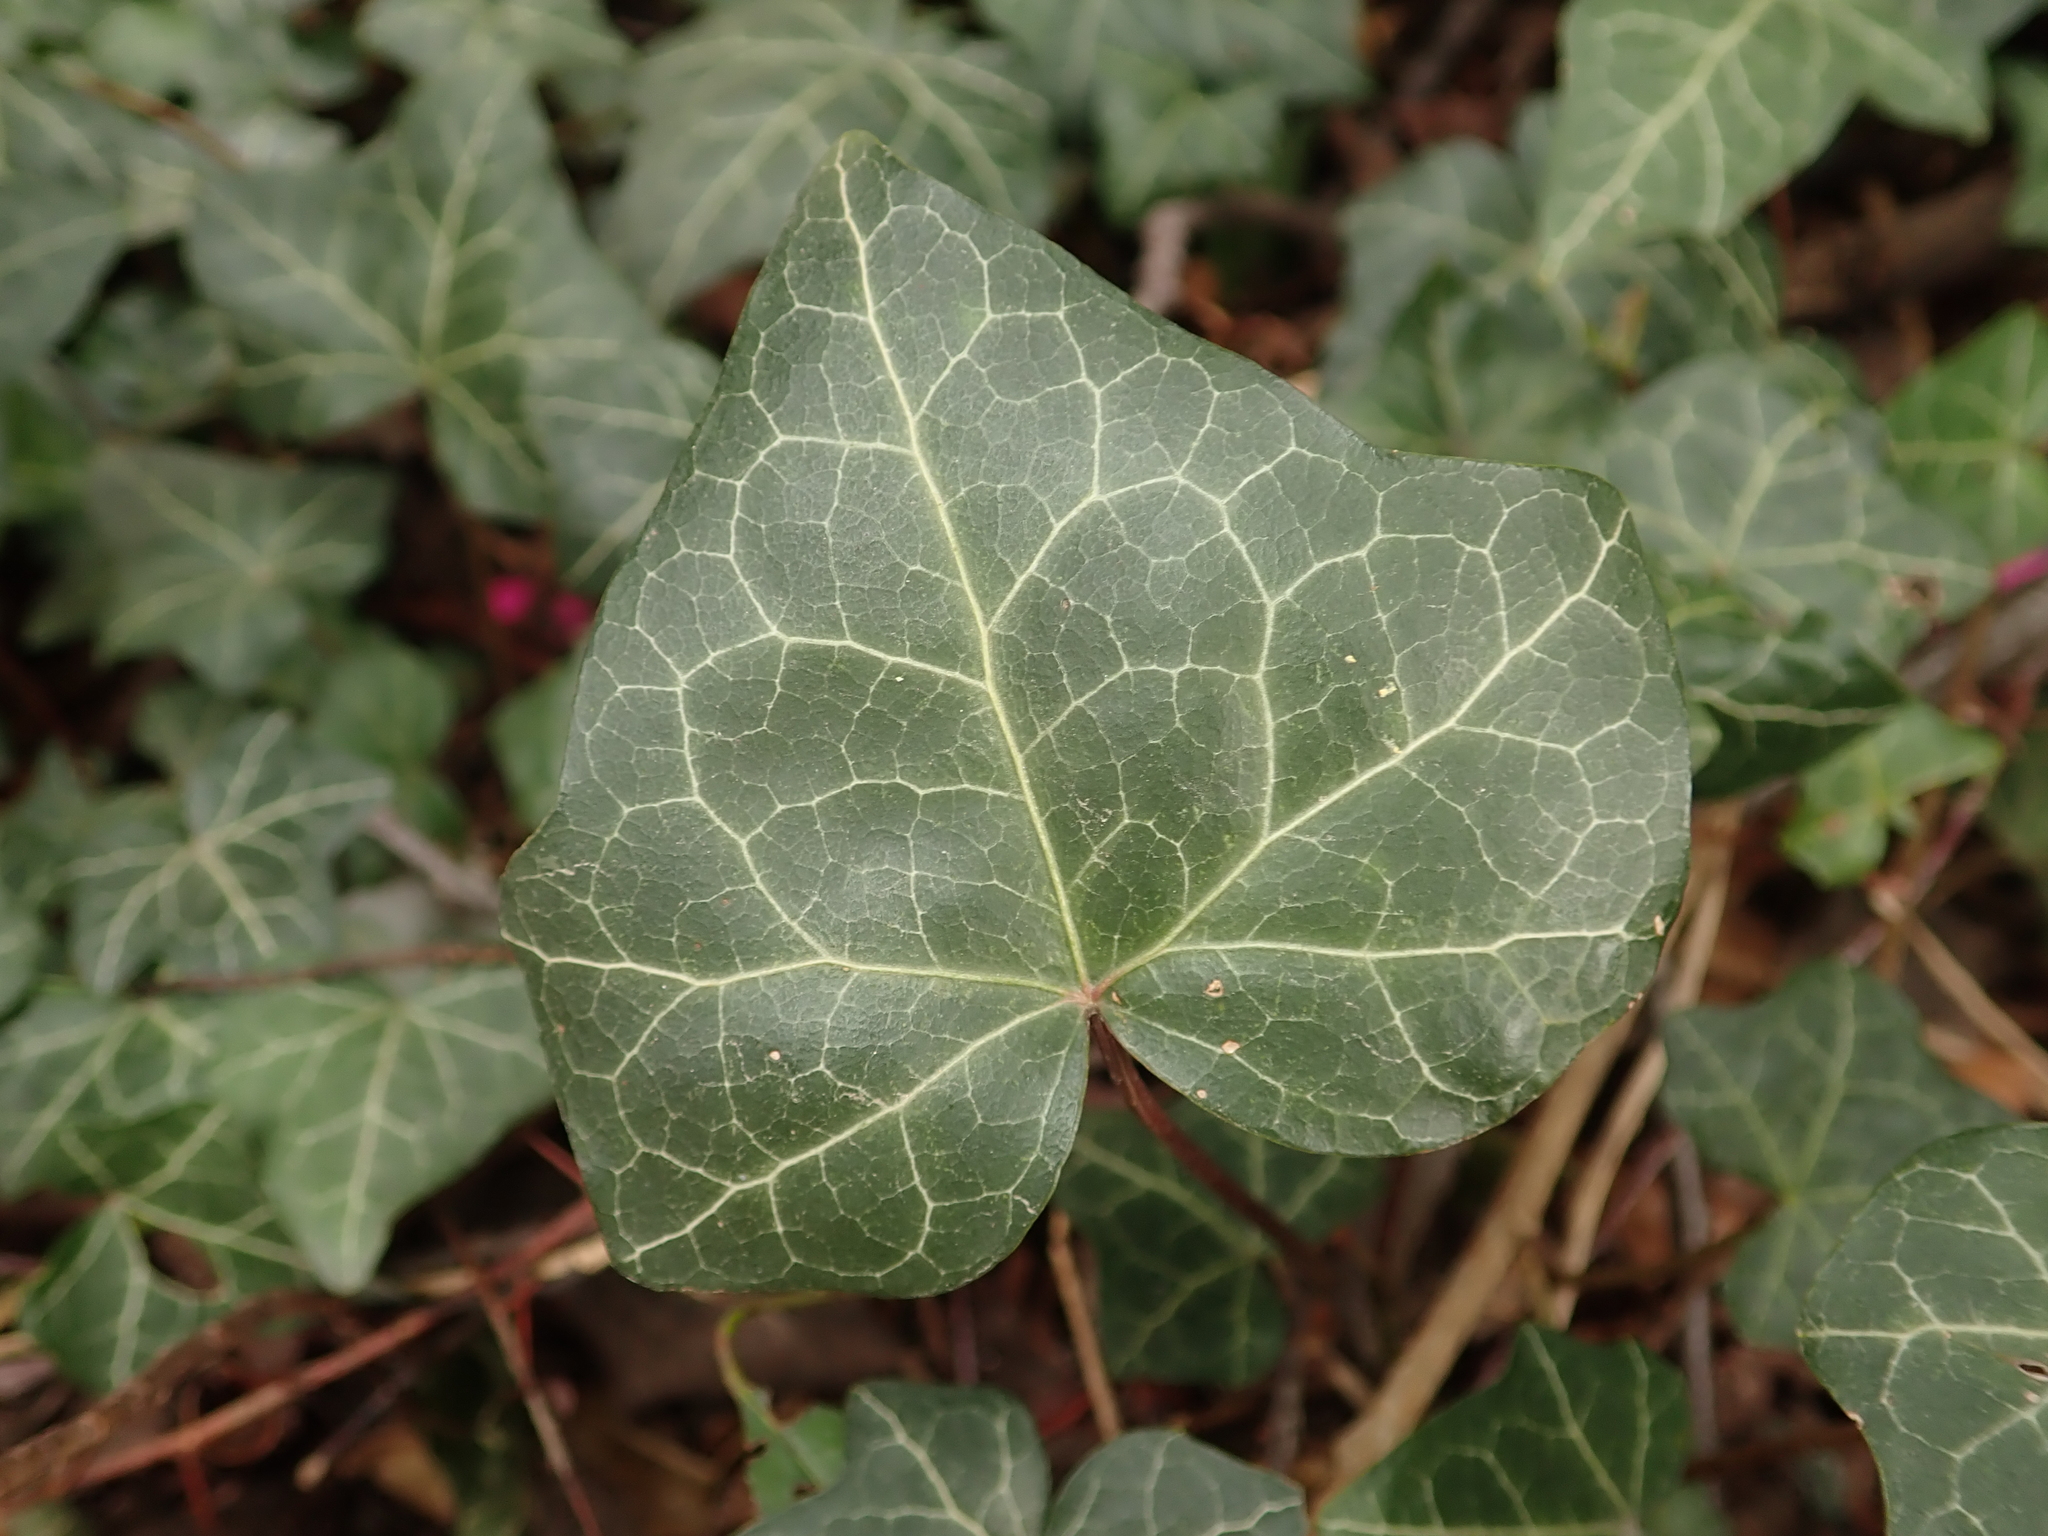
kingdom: Plantae
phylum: Tracheophyta
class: Magnoliopsida
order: Apiales
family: Araliaceae
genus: Hedera
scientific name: Hedera helix
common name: Ivy
